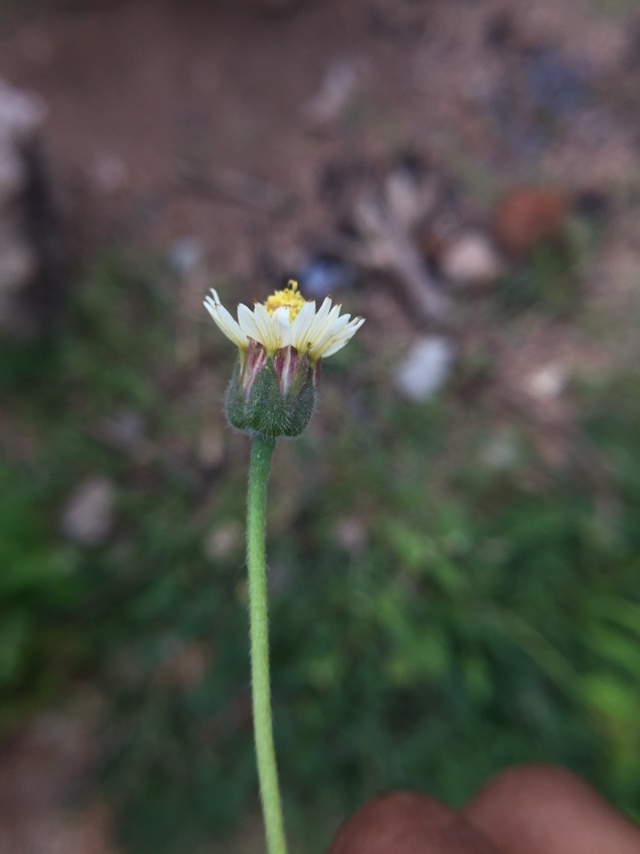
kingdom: Plantae
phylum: Tracheophyta
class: Magnoliopsida
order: Asterales
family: Asteraceae
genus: Tridax
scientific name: Tridax procumbens
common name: Coatbuttons
